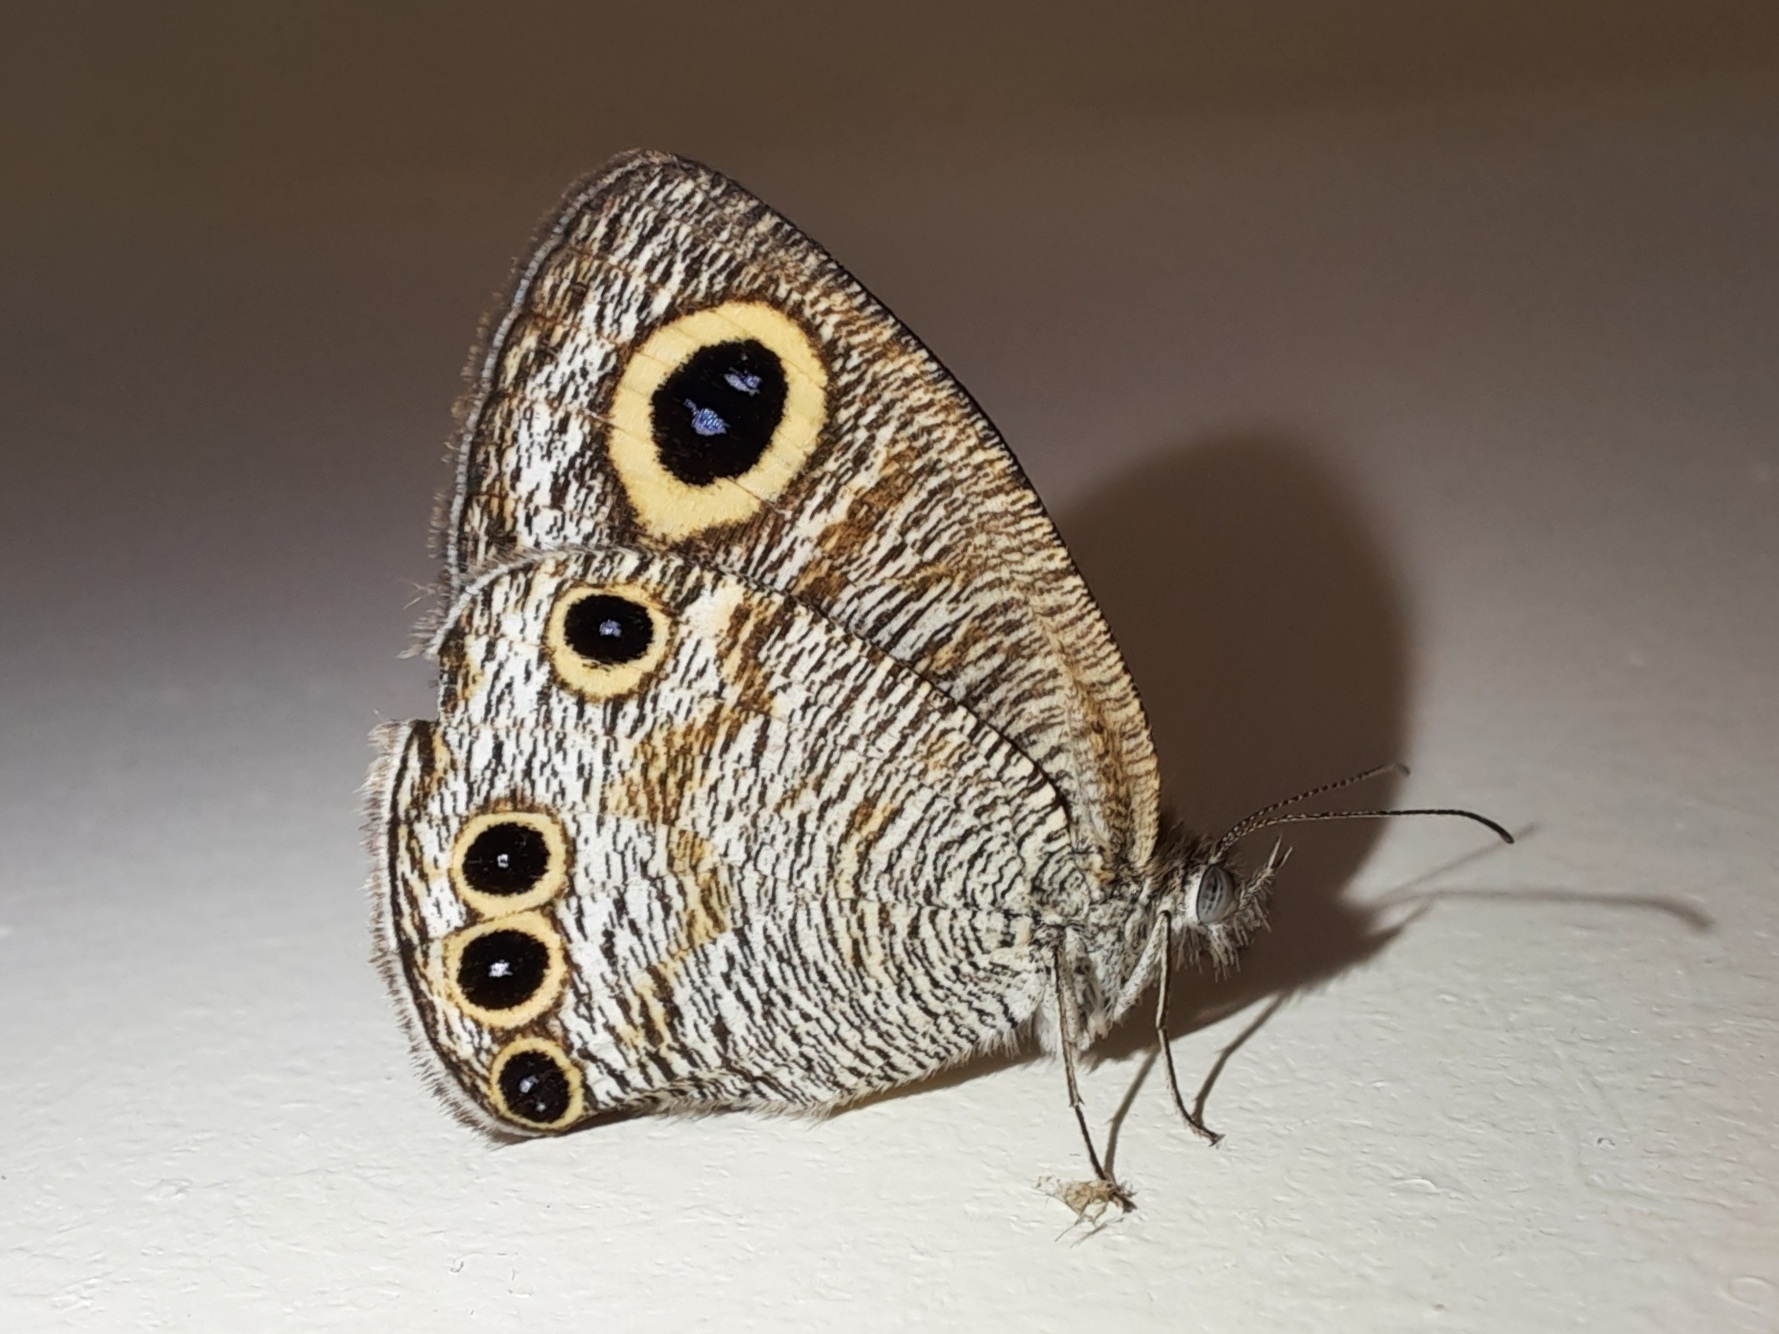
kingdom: Animalia
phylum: Arthropoda
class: Insecta
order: Lepidoptera
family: Nymphalidae
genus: Ypthima
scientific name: Ypthima huebneri
